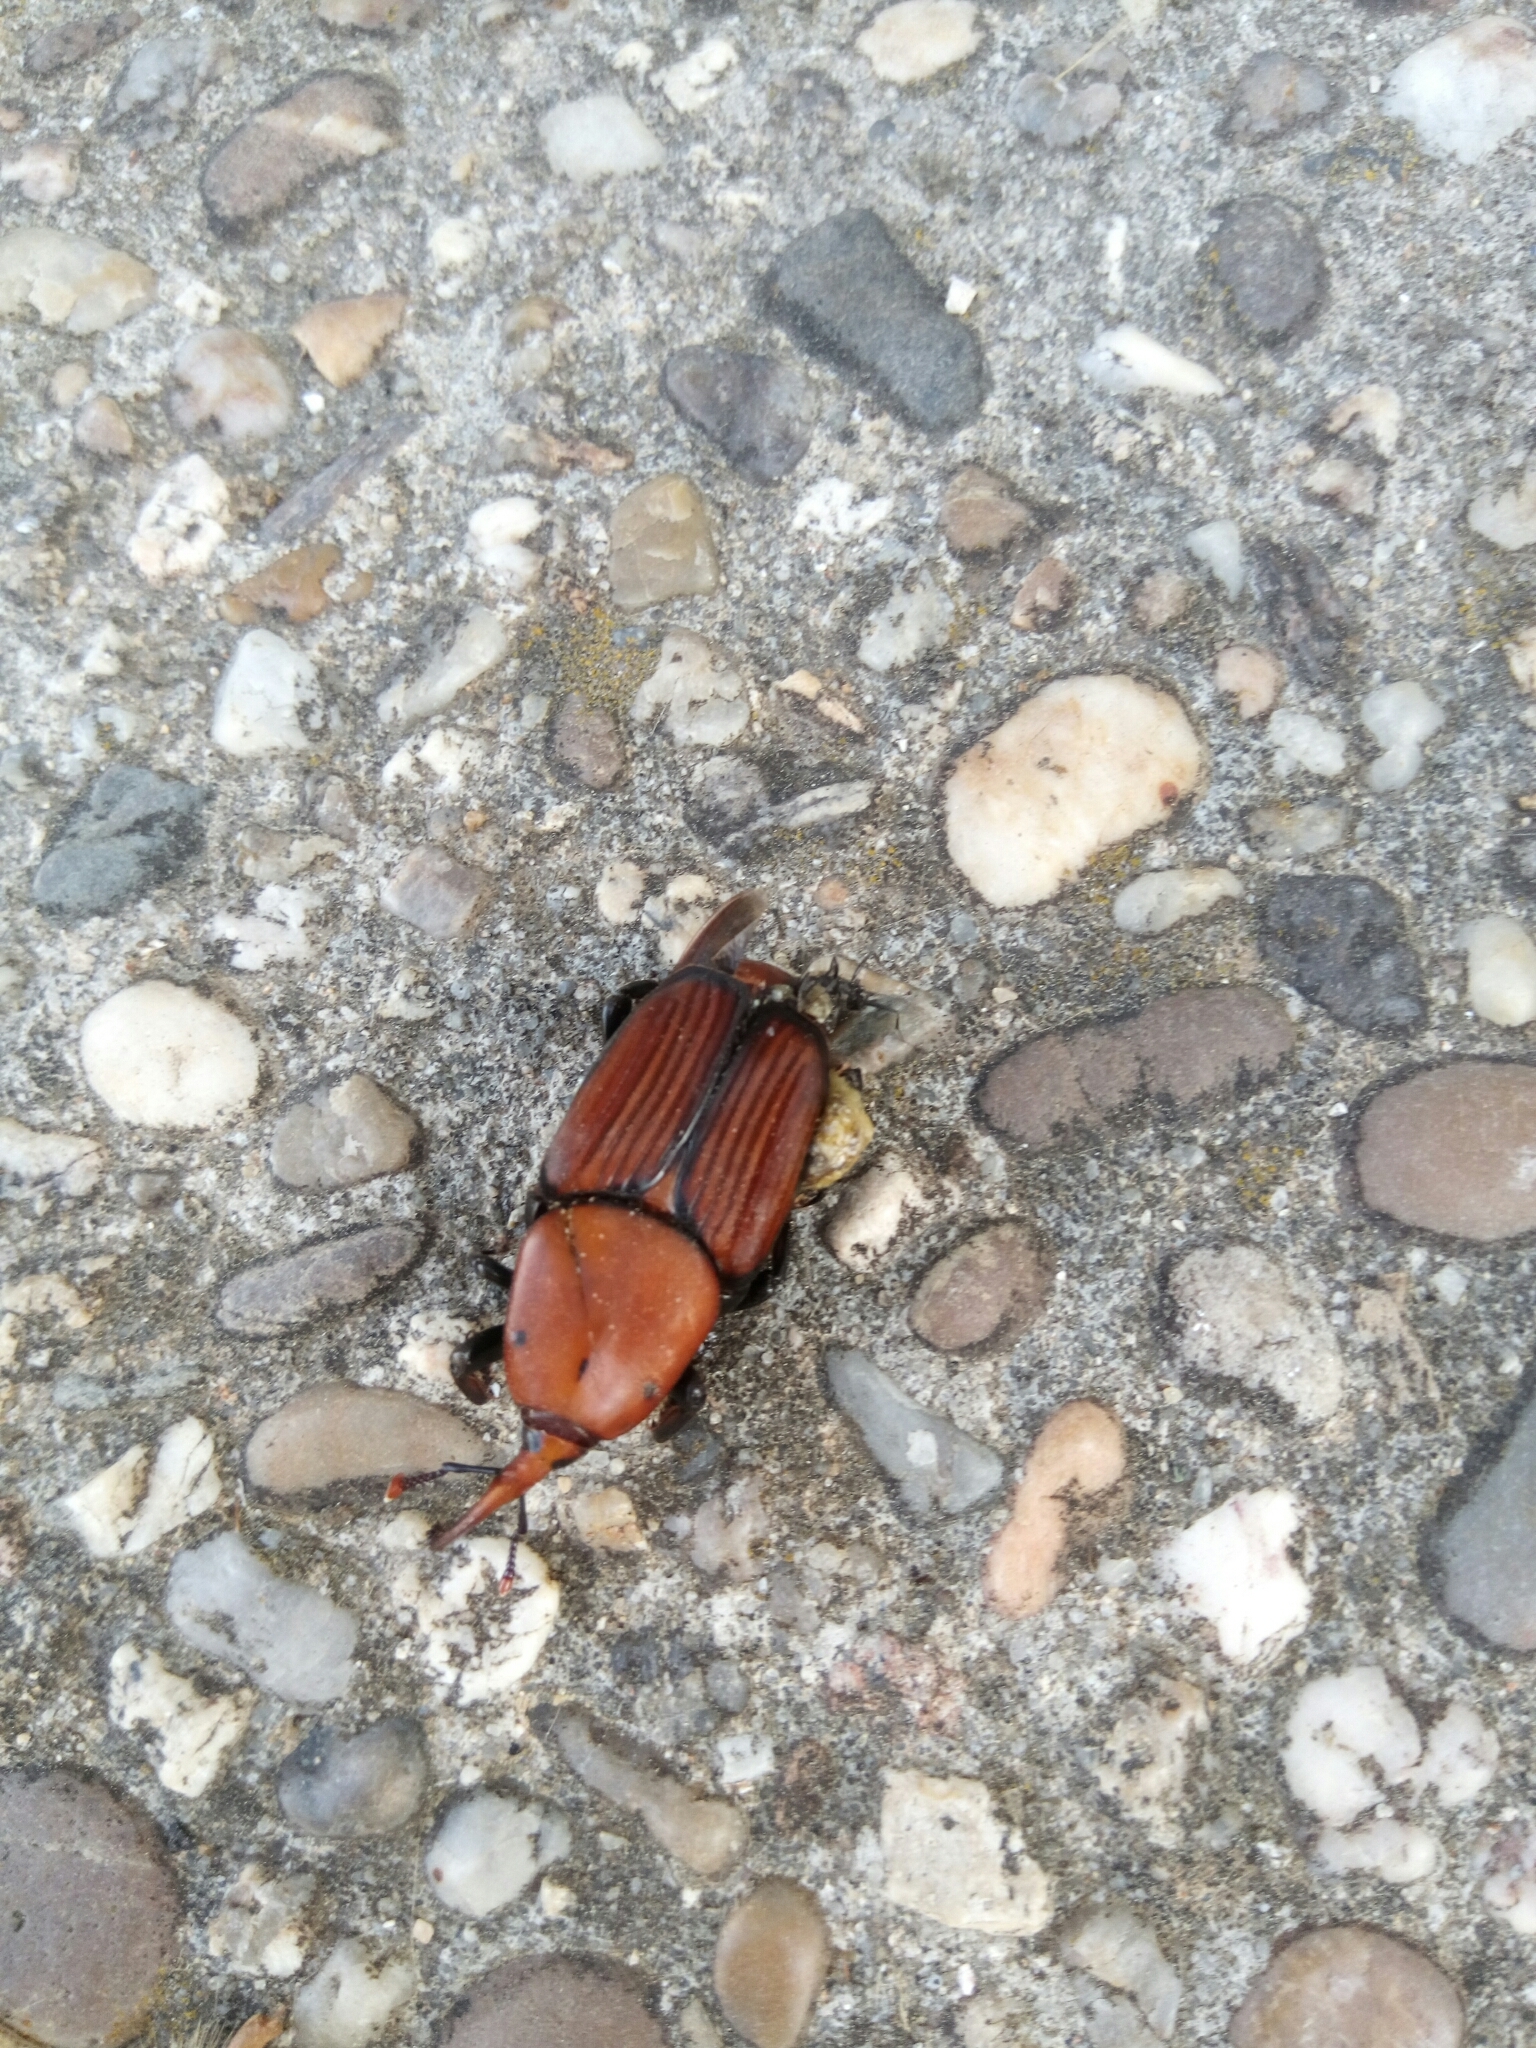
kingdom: Animalia
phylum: Arthropoda
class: Insecta
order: Coleoptera
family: Dryophthoridae
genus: Rhynchophorus
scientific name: Rhynchophorus ferrugineus
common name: Red palm weevil
